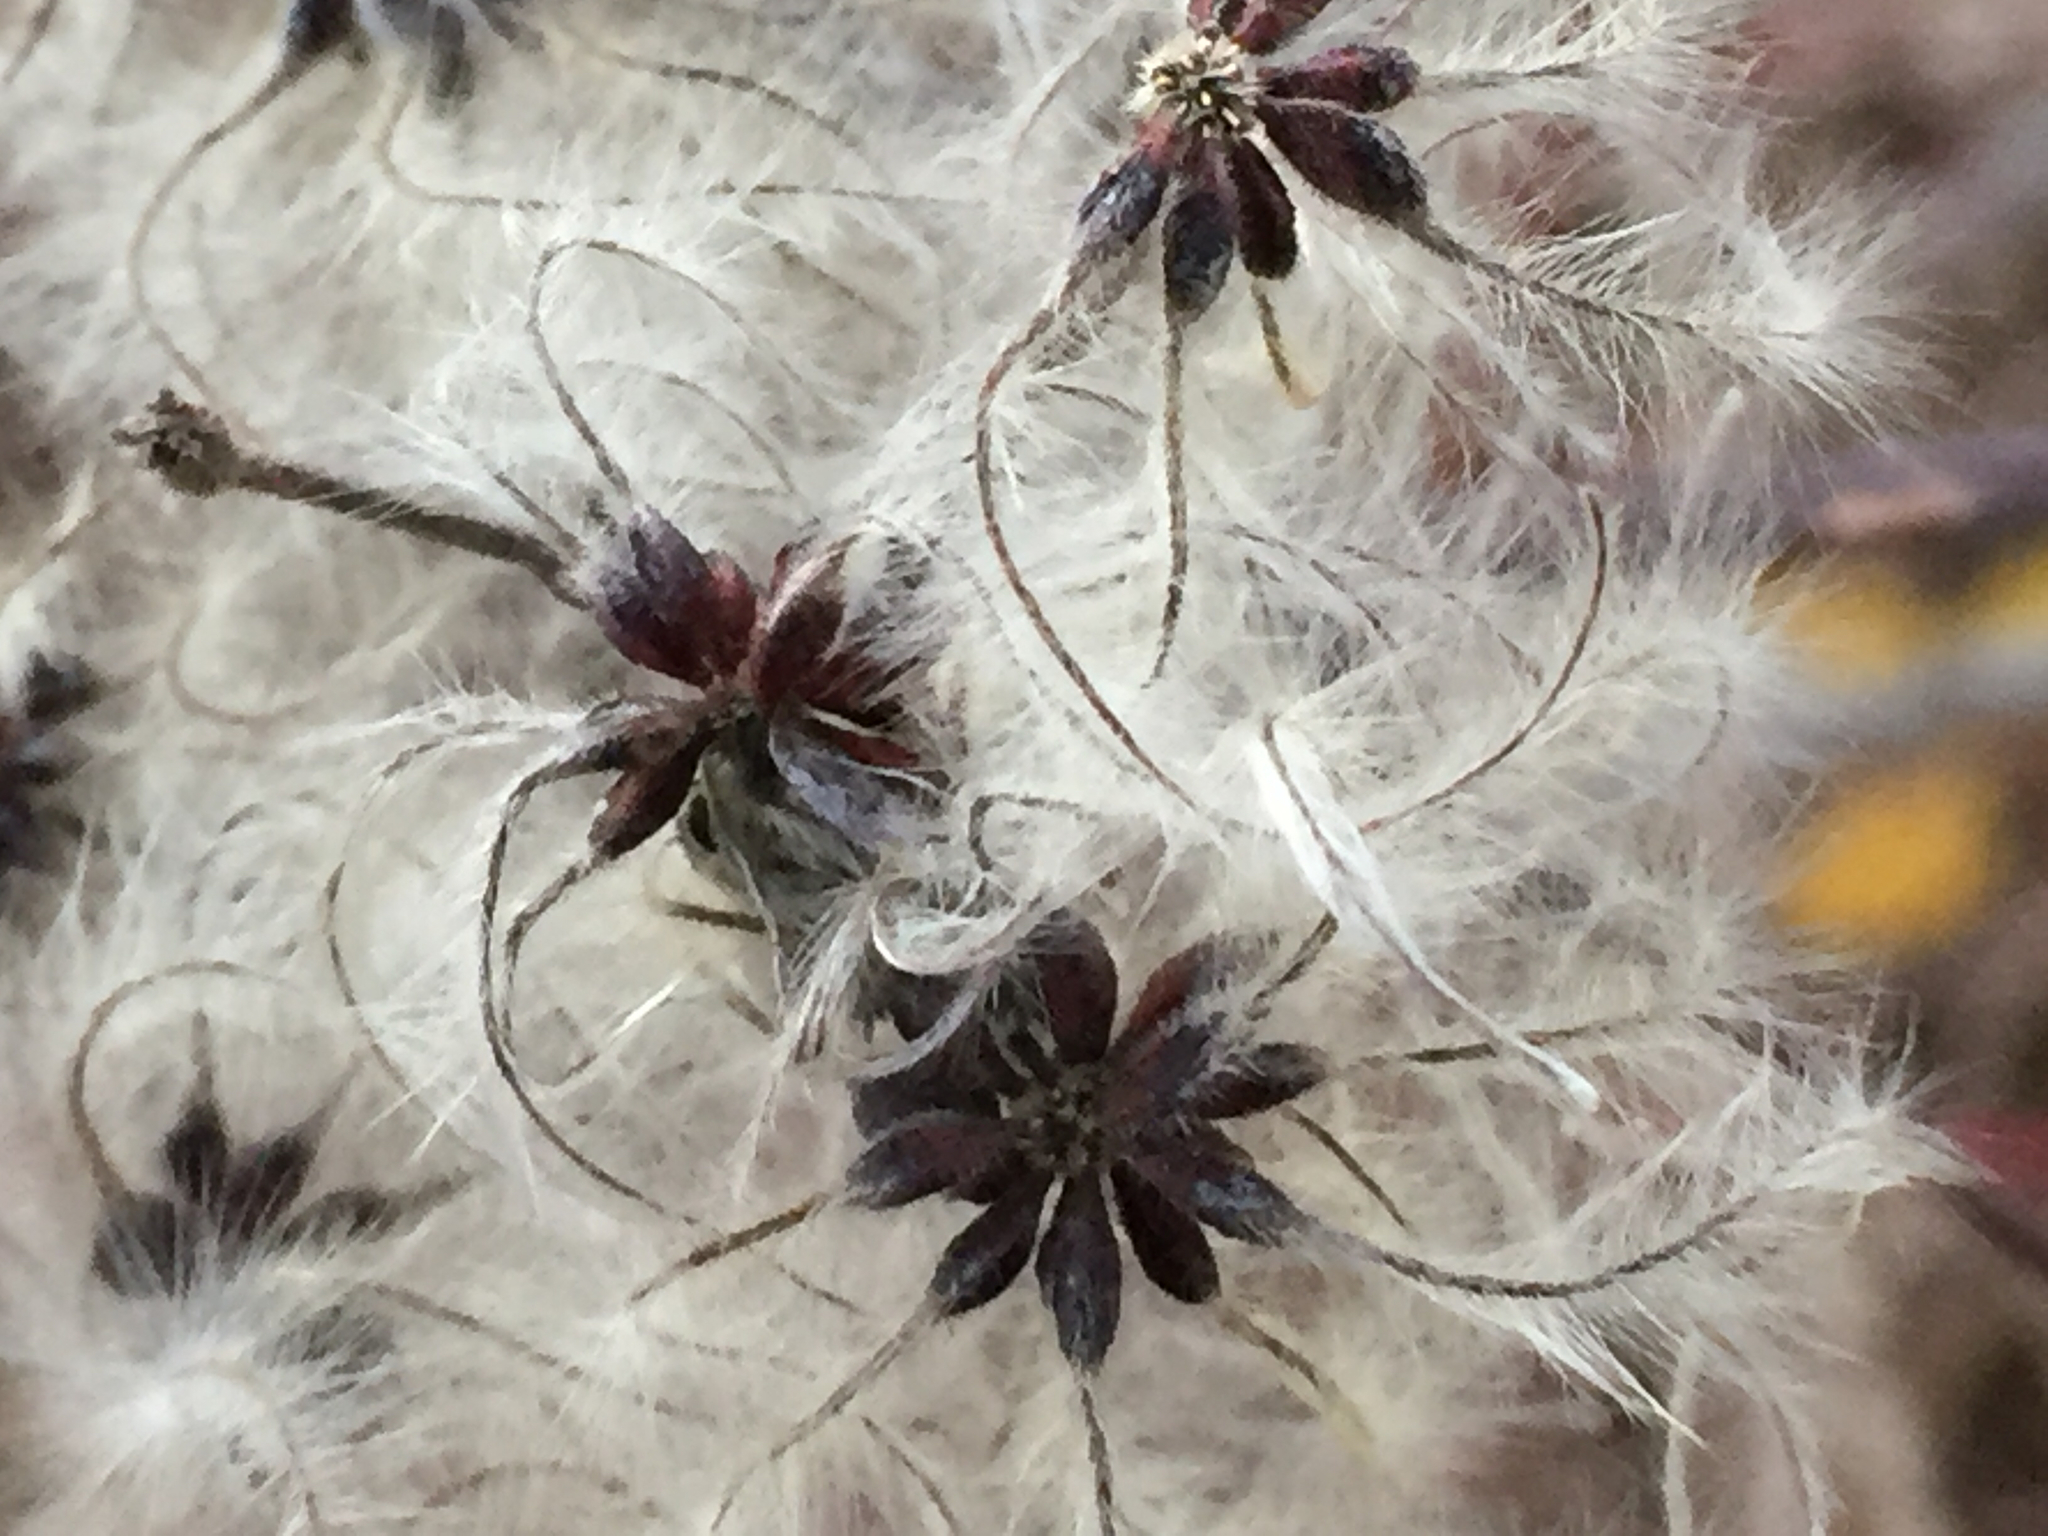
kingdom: Plantae
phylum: Tracheophyta
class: Magnoliopsida
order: Ranunculales
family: Ranunculaceae
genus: Clematis
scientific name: Clematis vitalba
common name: Evergreen clematis
